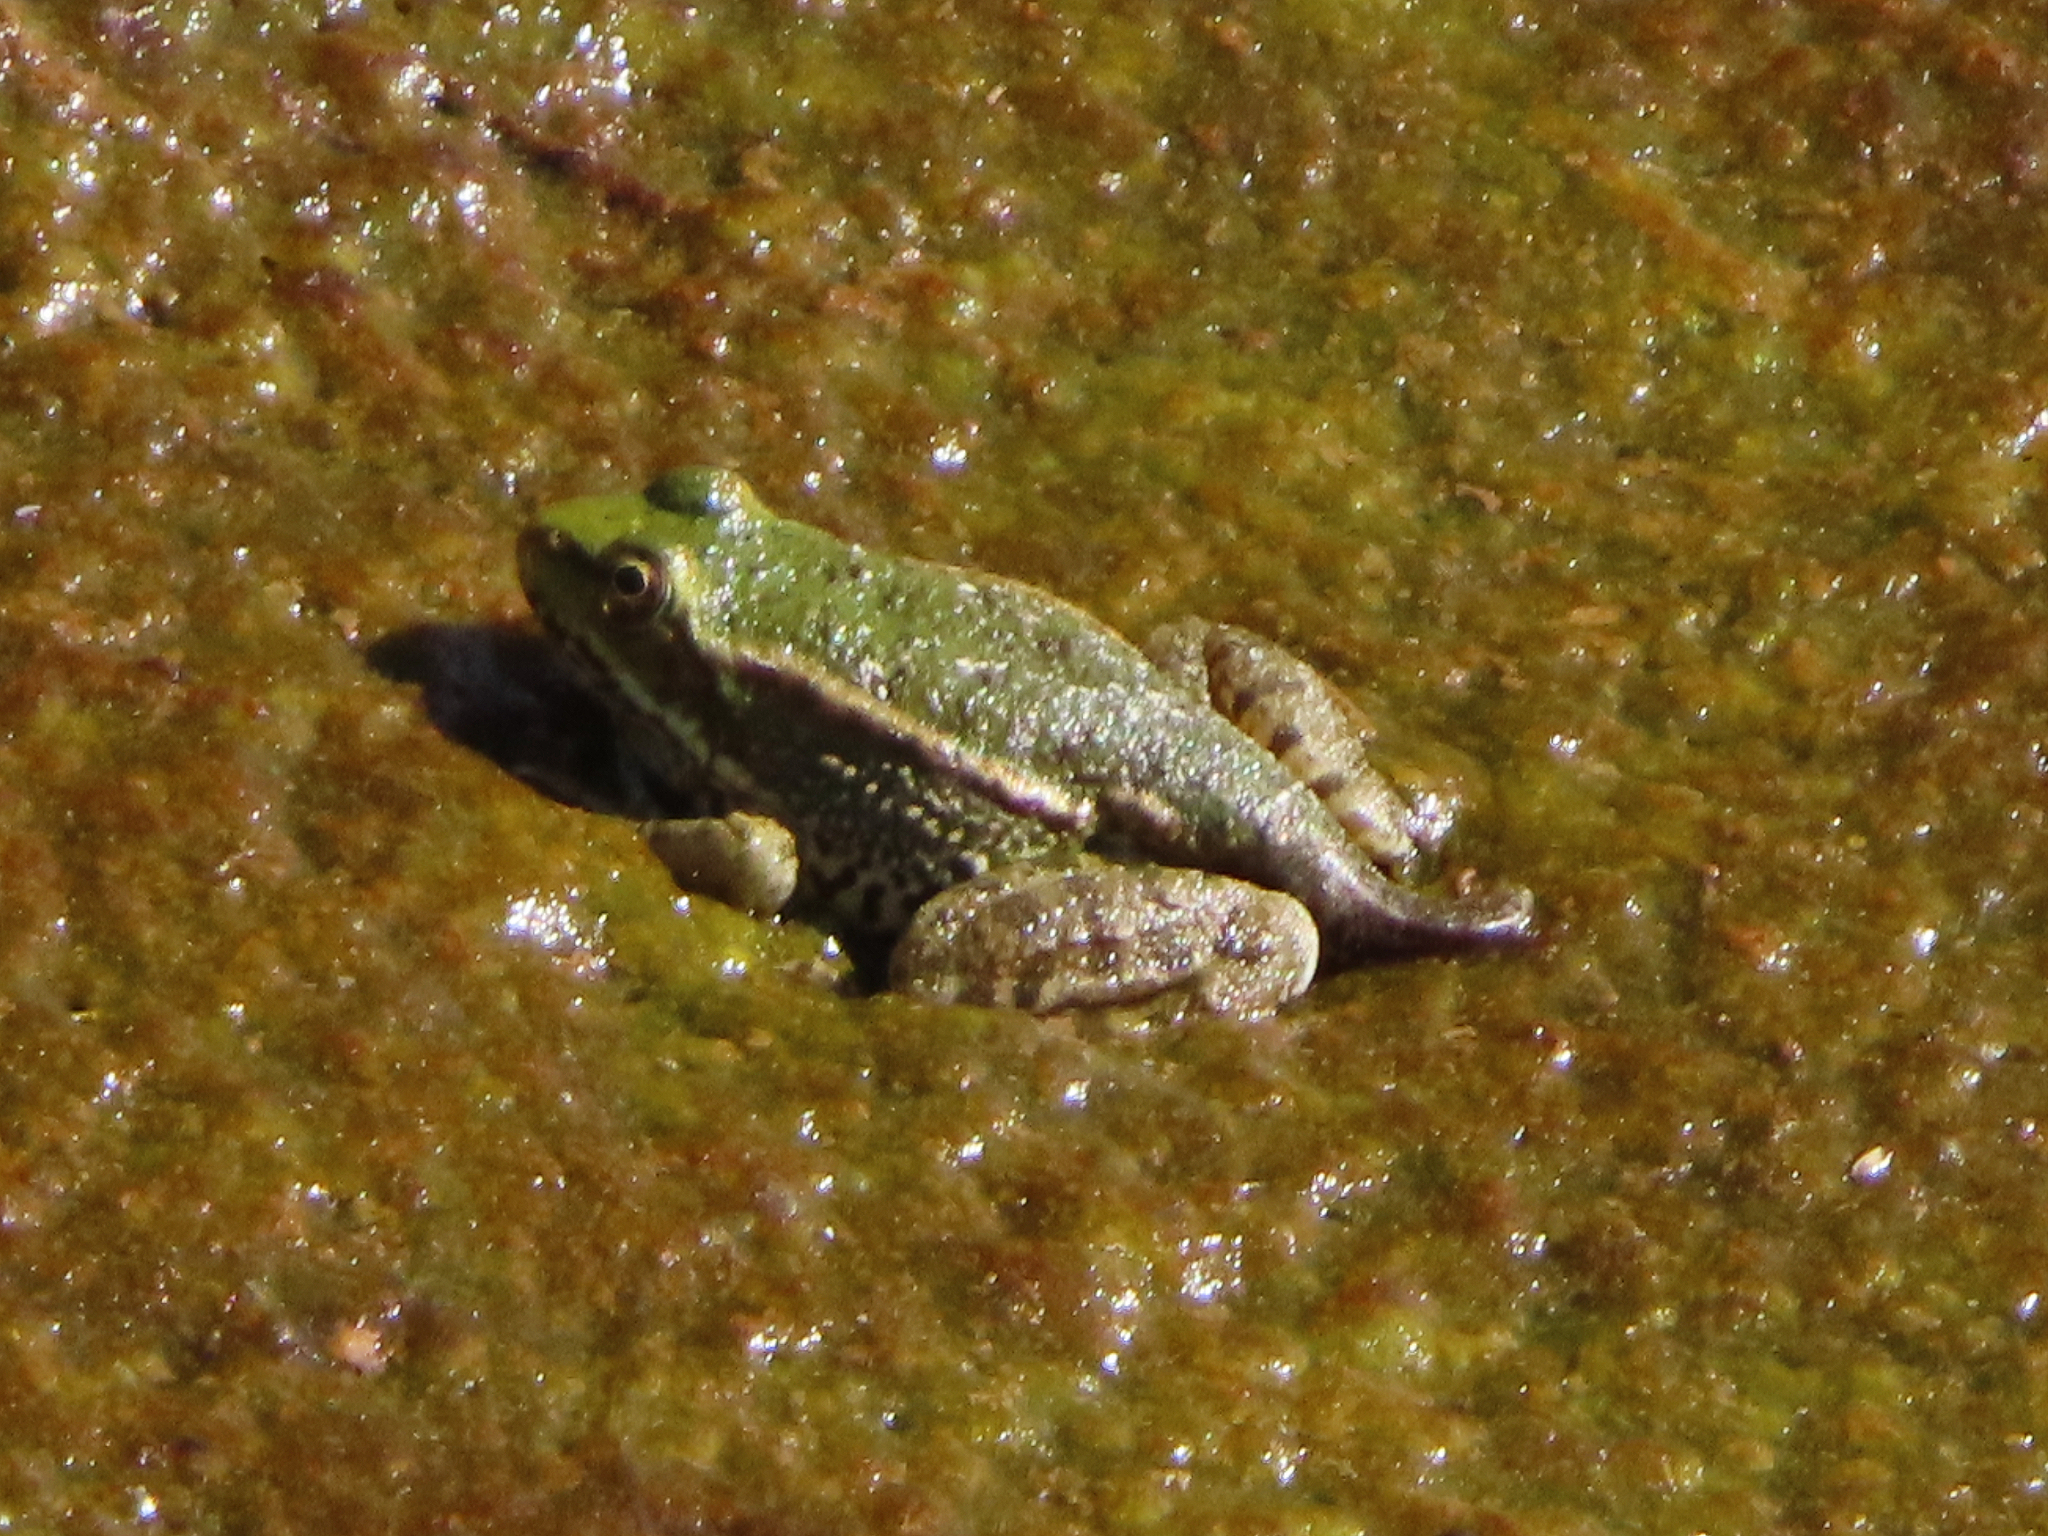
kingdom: Animalia
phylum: Chordata
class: Amphibia
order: Anura
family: Ranidae
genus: Pelophylax
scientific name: Pelophylax ridibundus
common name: Marsh frog
